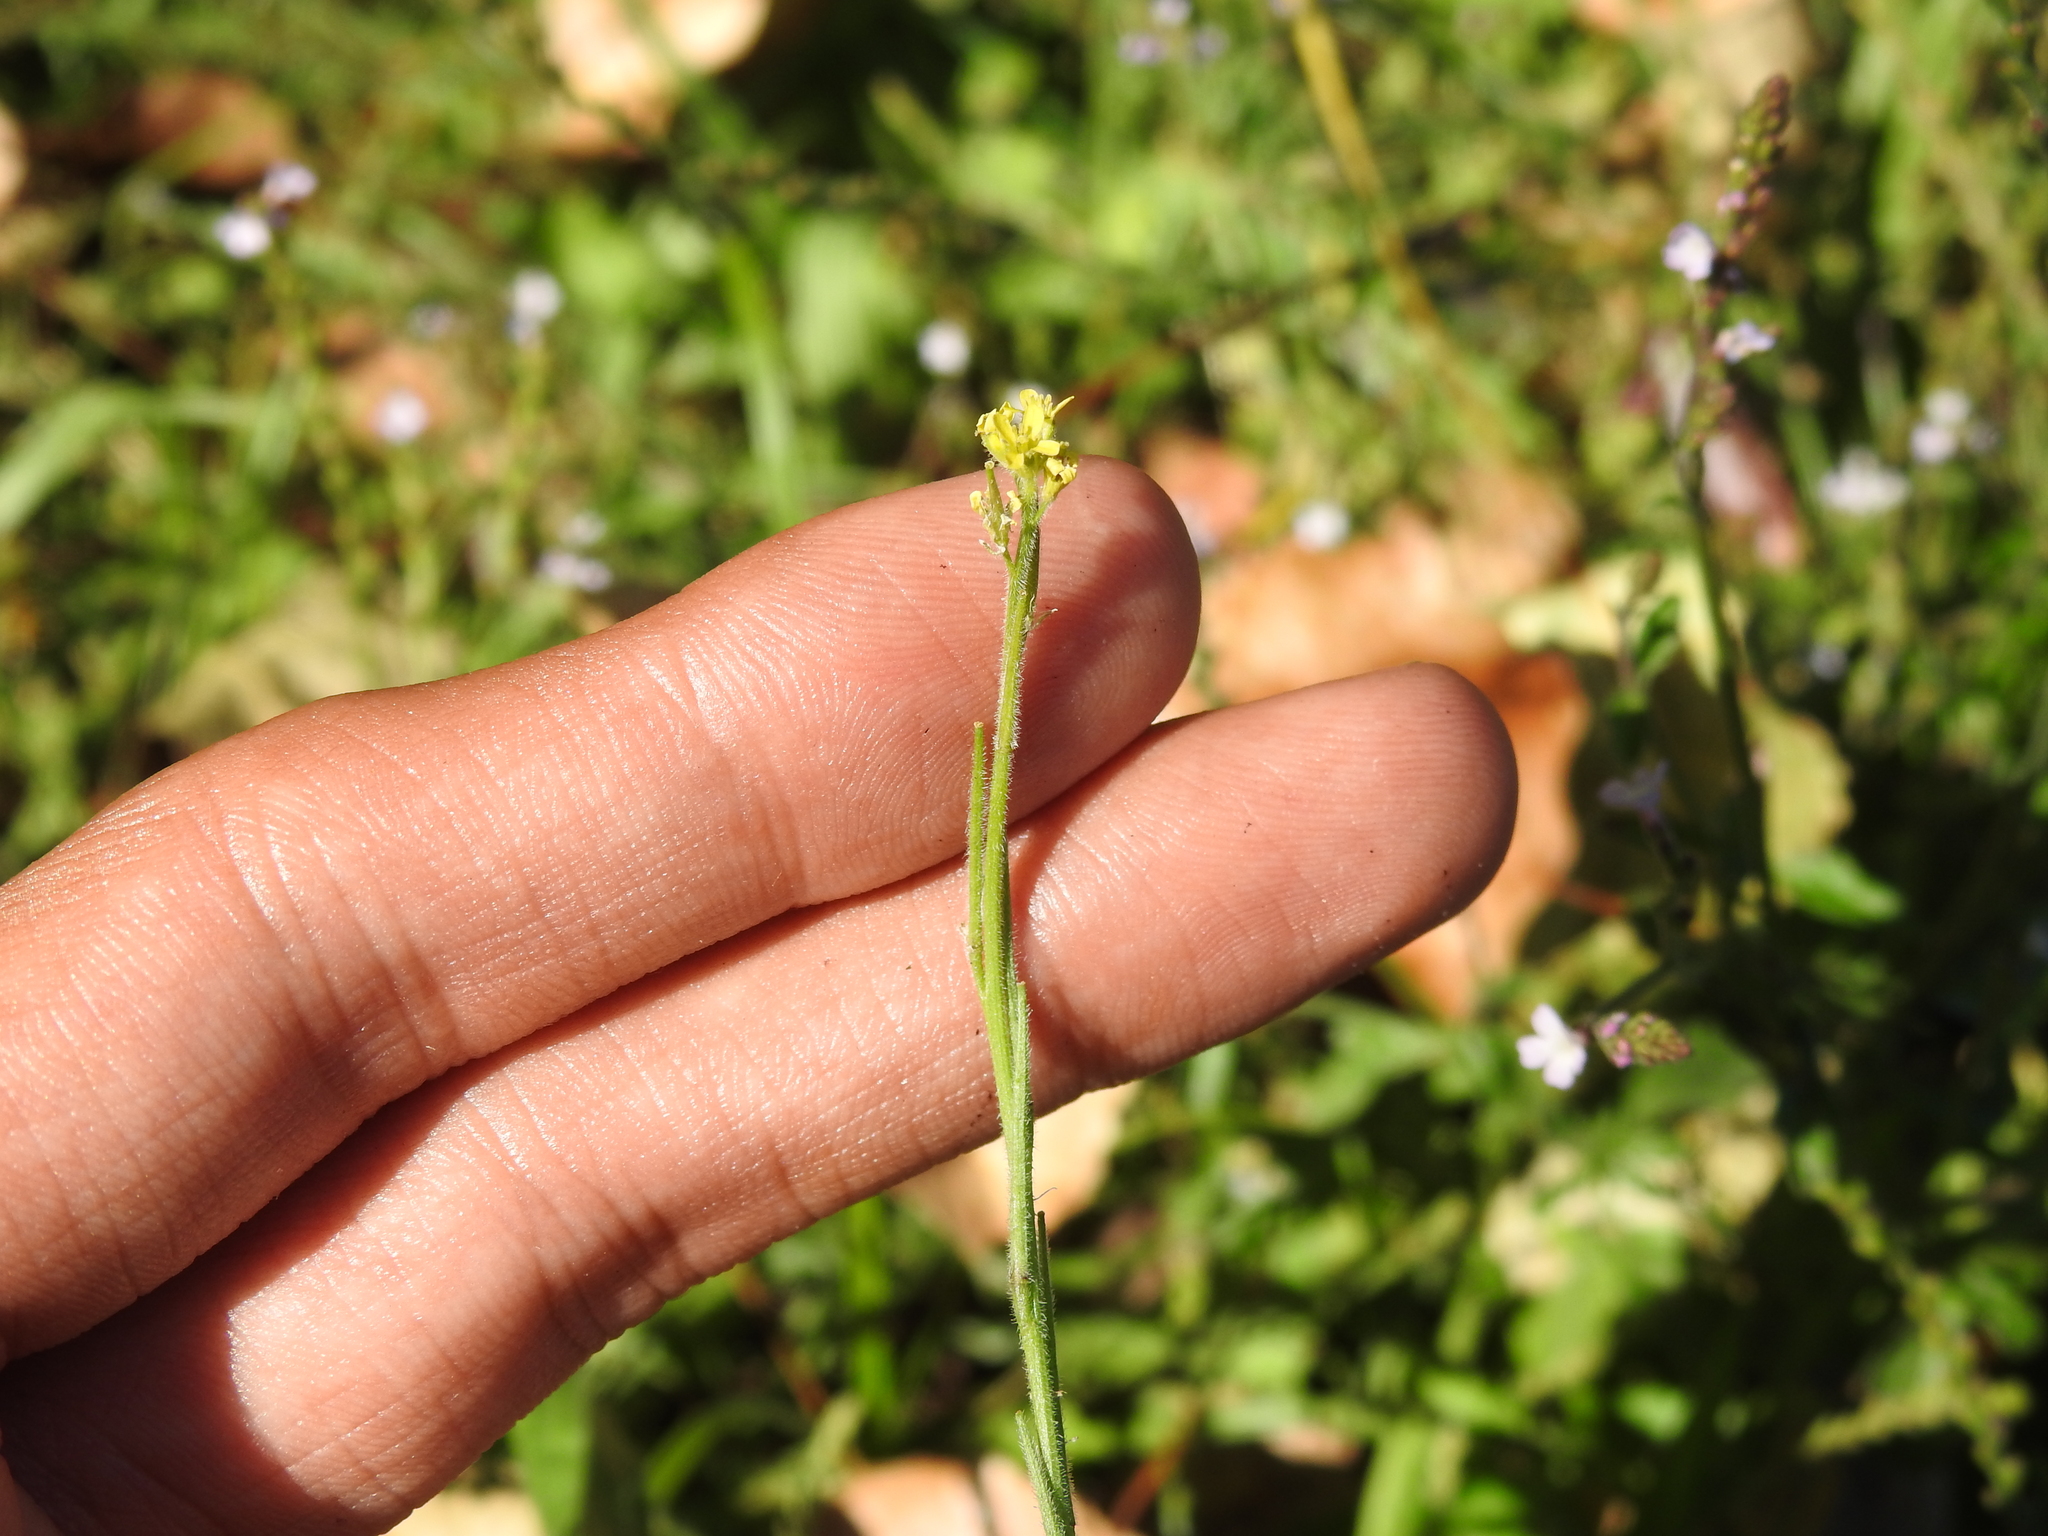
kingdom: Plantae
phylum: Tracheophyta
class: Magnoliopsida
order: Brassicales
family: Brassicaceae
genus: Sisymbrium
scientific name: Sisymbrium officinale
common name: Hedge mustard
